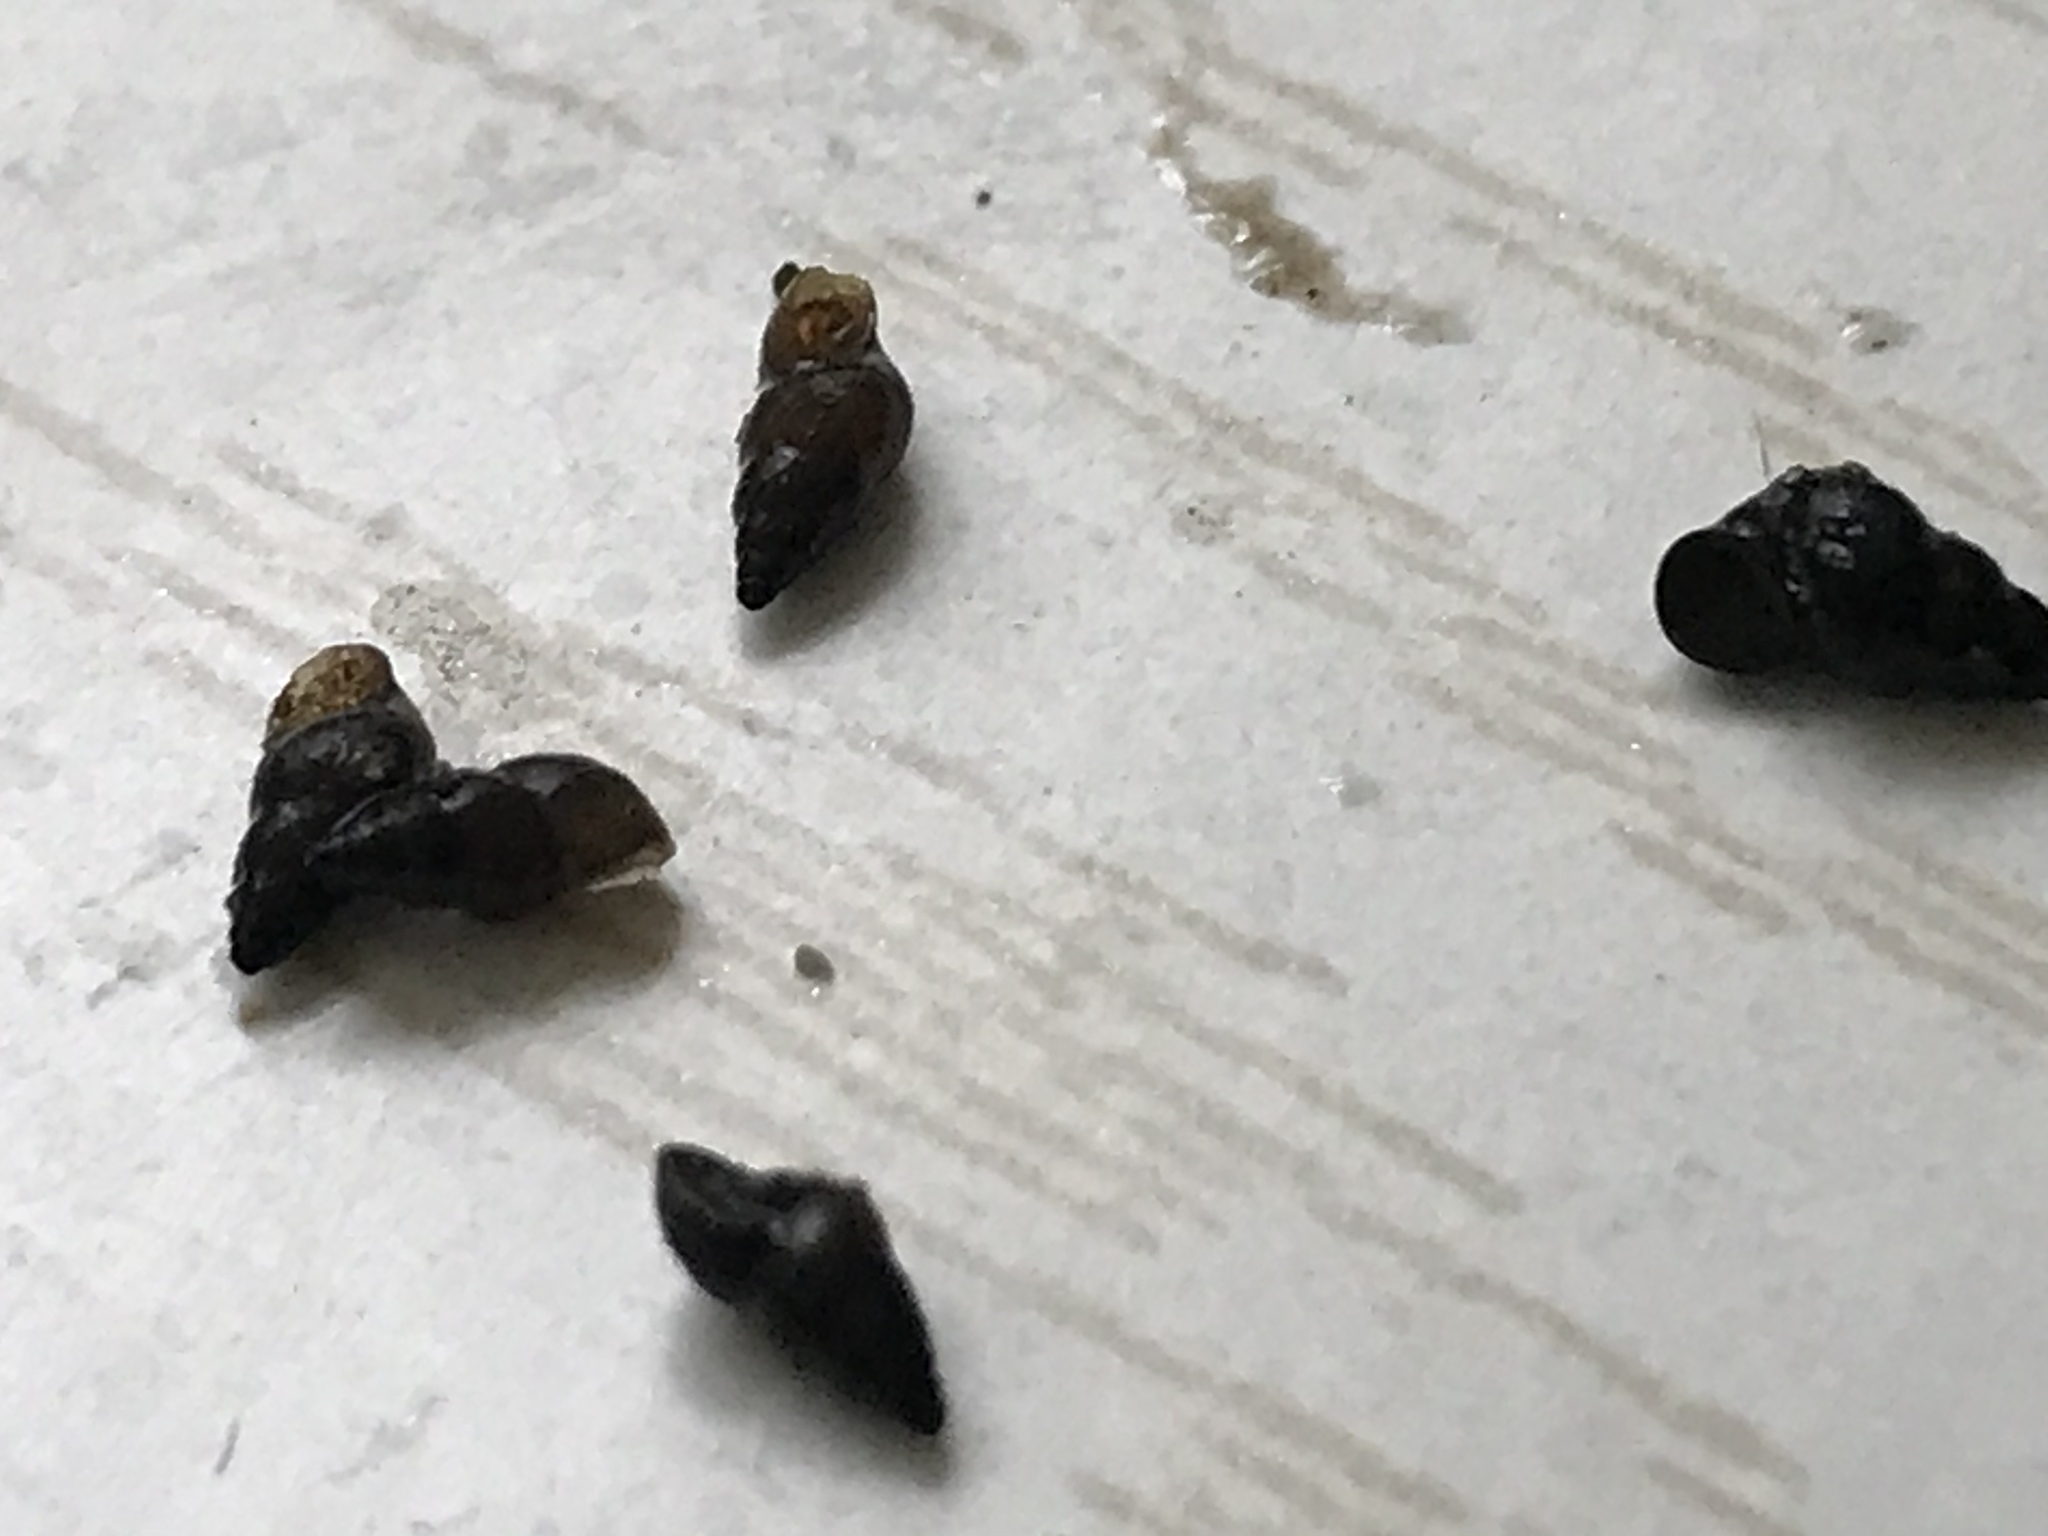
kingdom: Animalia
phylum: Mollusca
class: Gastropoda
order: Littorinimorpha
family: Tateidae
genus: Potamopyrgus
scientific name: Potamopyrgus antipodarum
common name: Jenkins' spire snail
